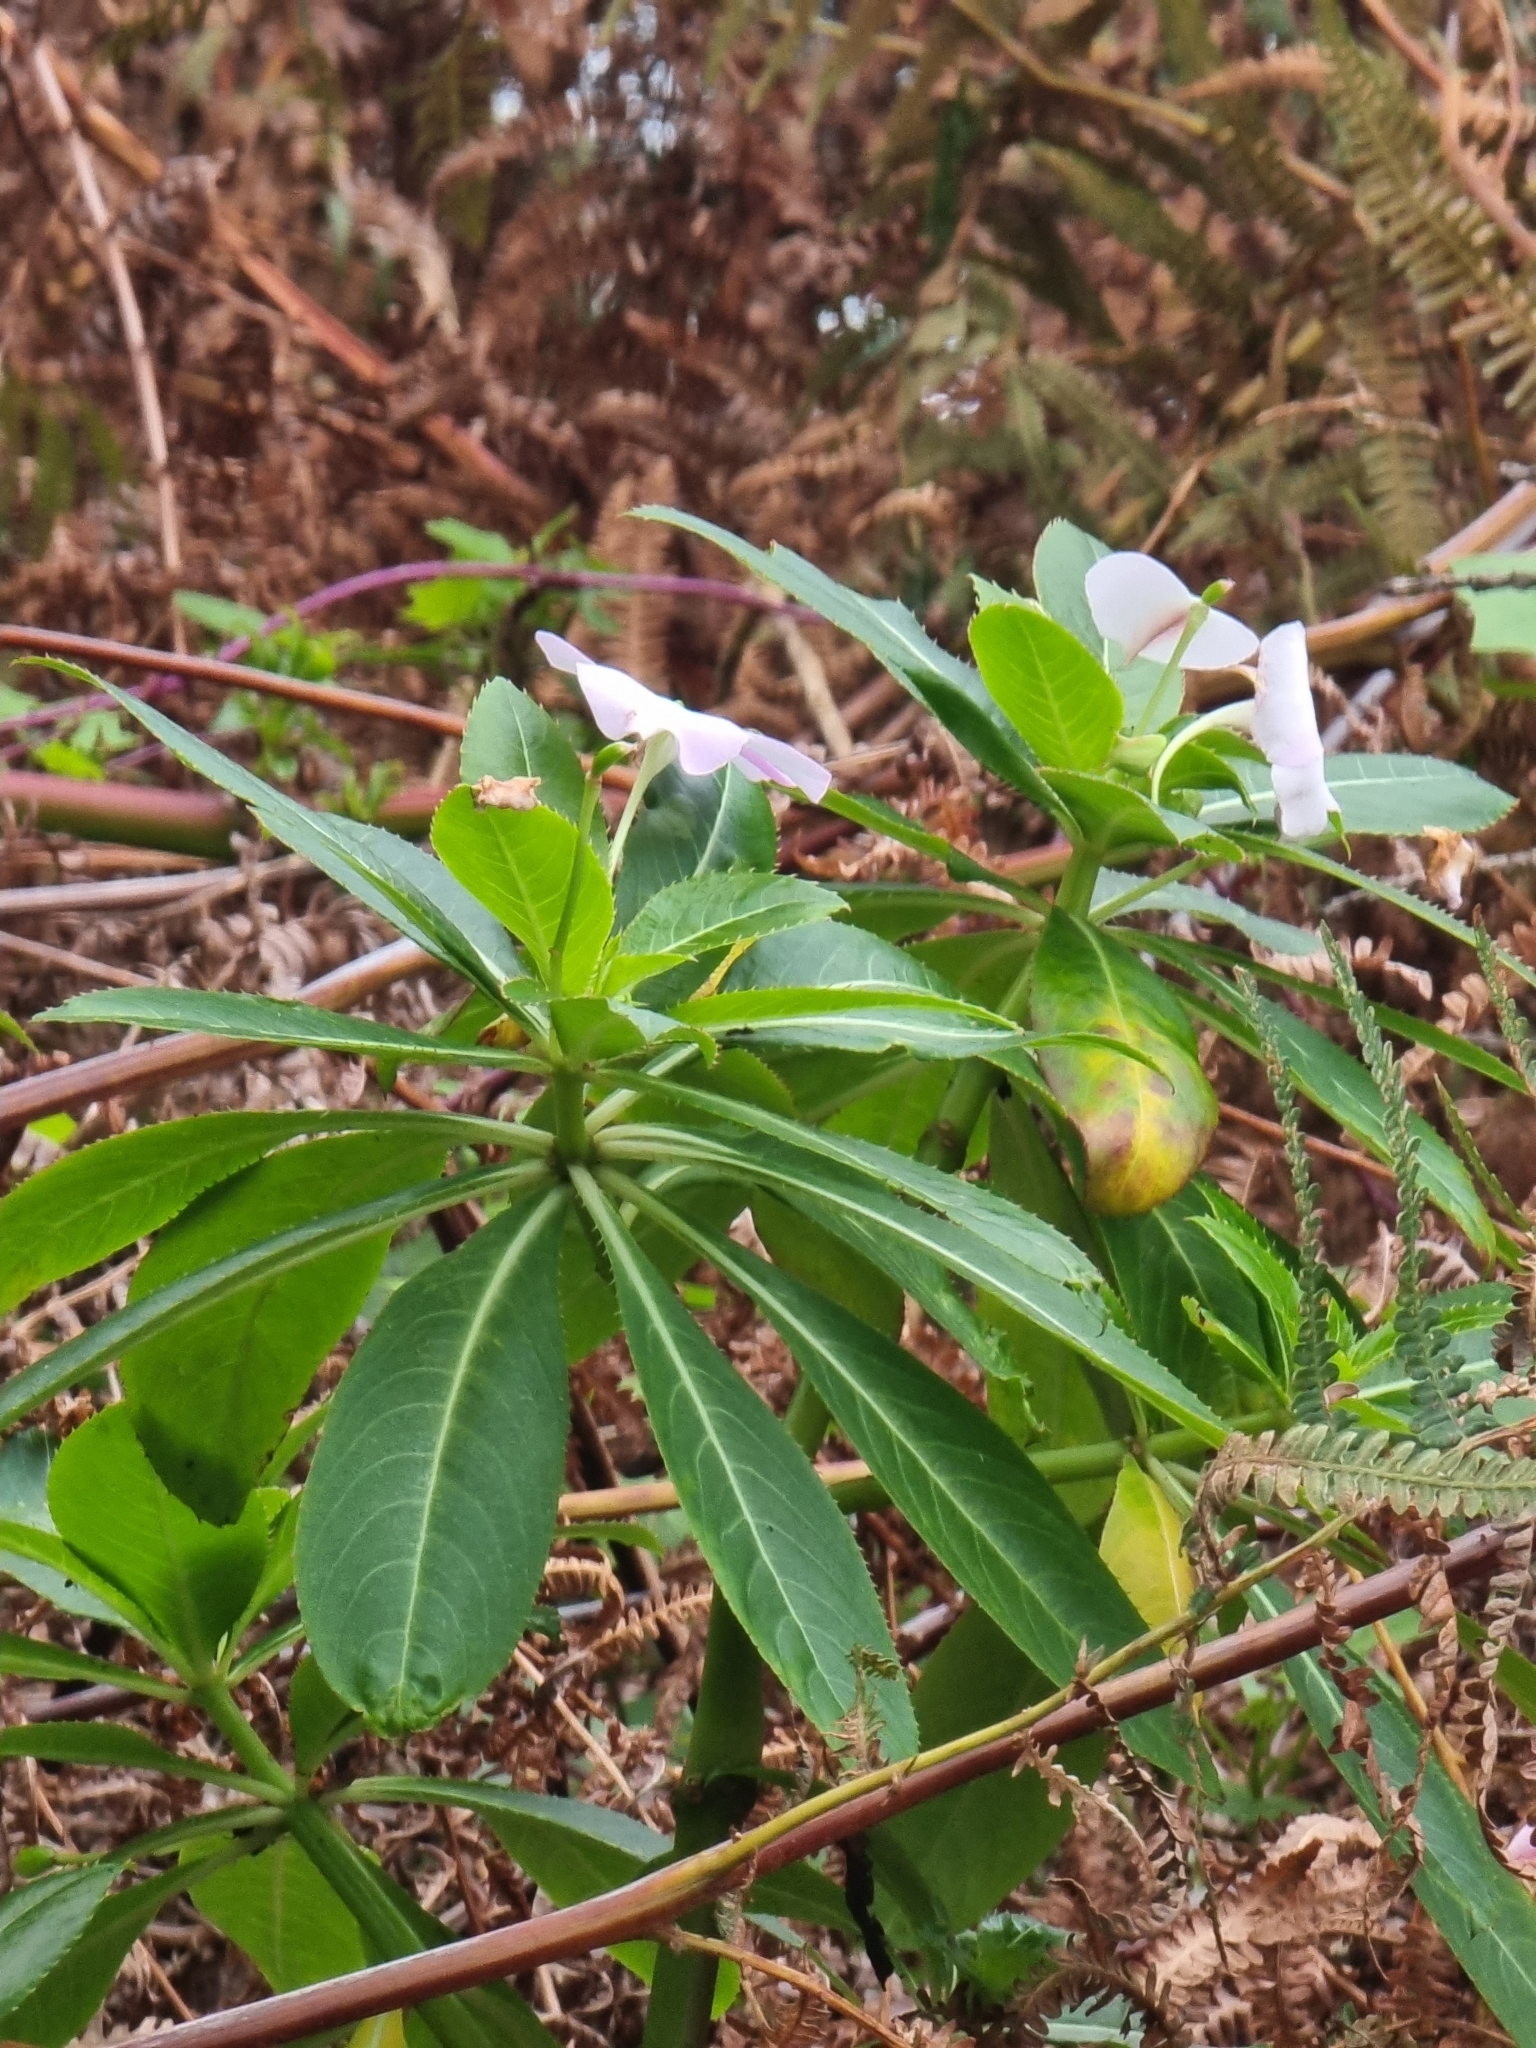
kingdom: Plantae
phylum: Tracheophyta
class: Magnoliopsida
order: Ericales
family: Balsaminaceae
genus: Impatiens
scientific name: Impatiens sodenii
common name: Oliver's touch-me-not
